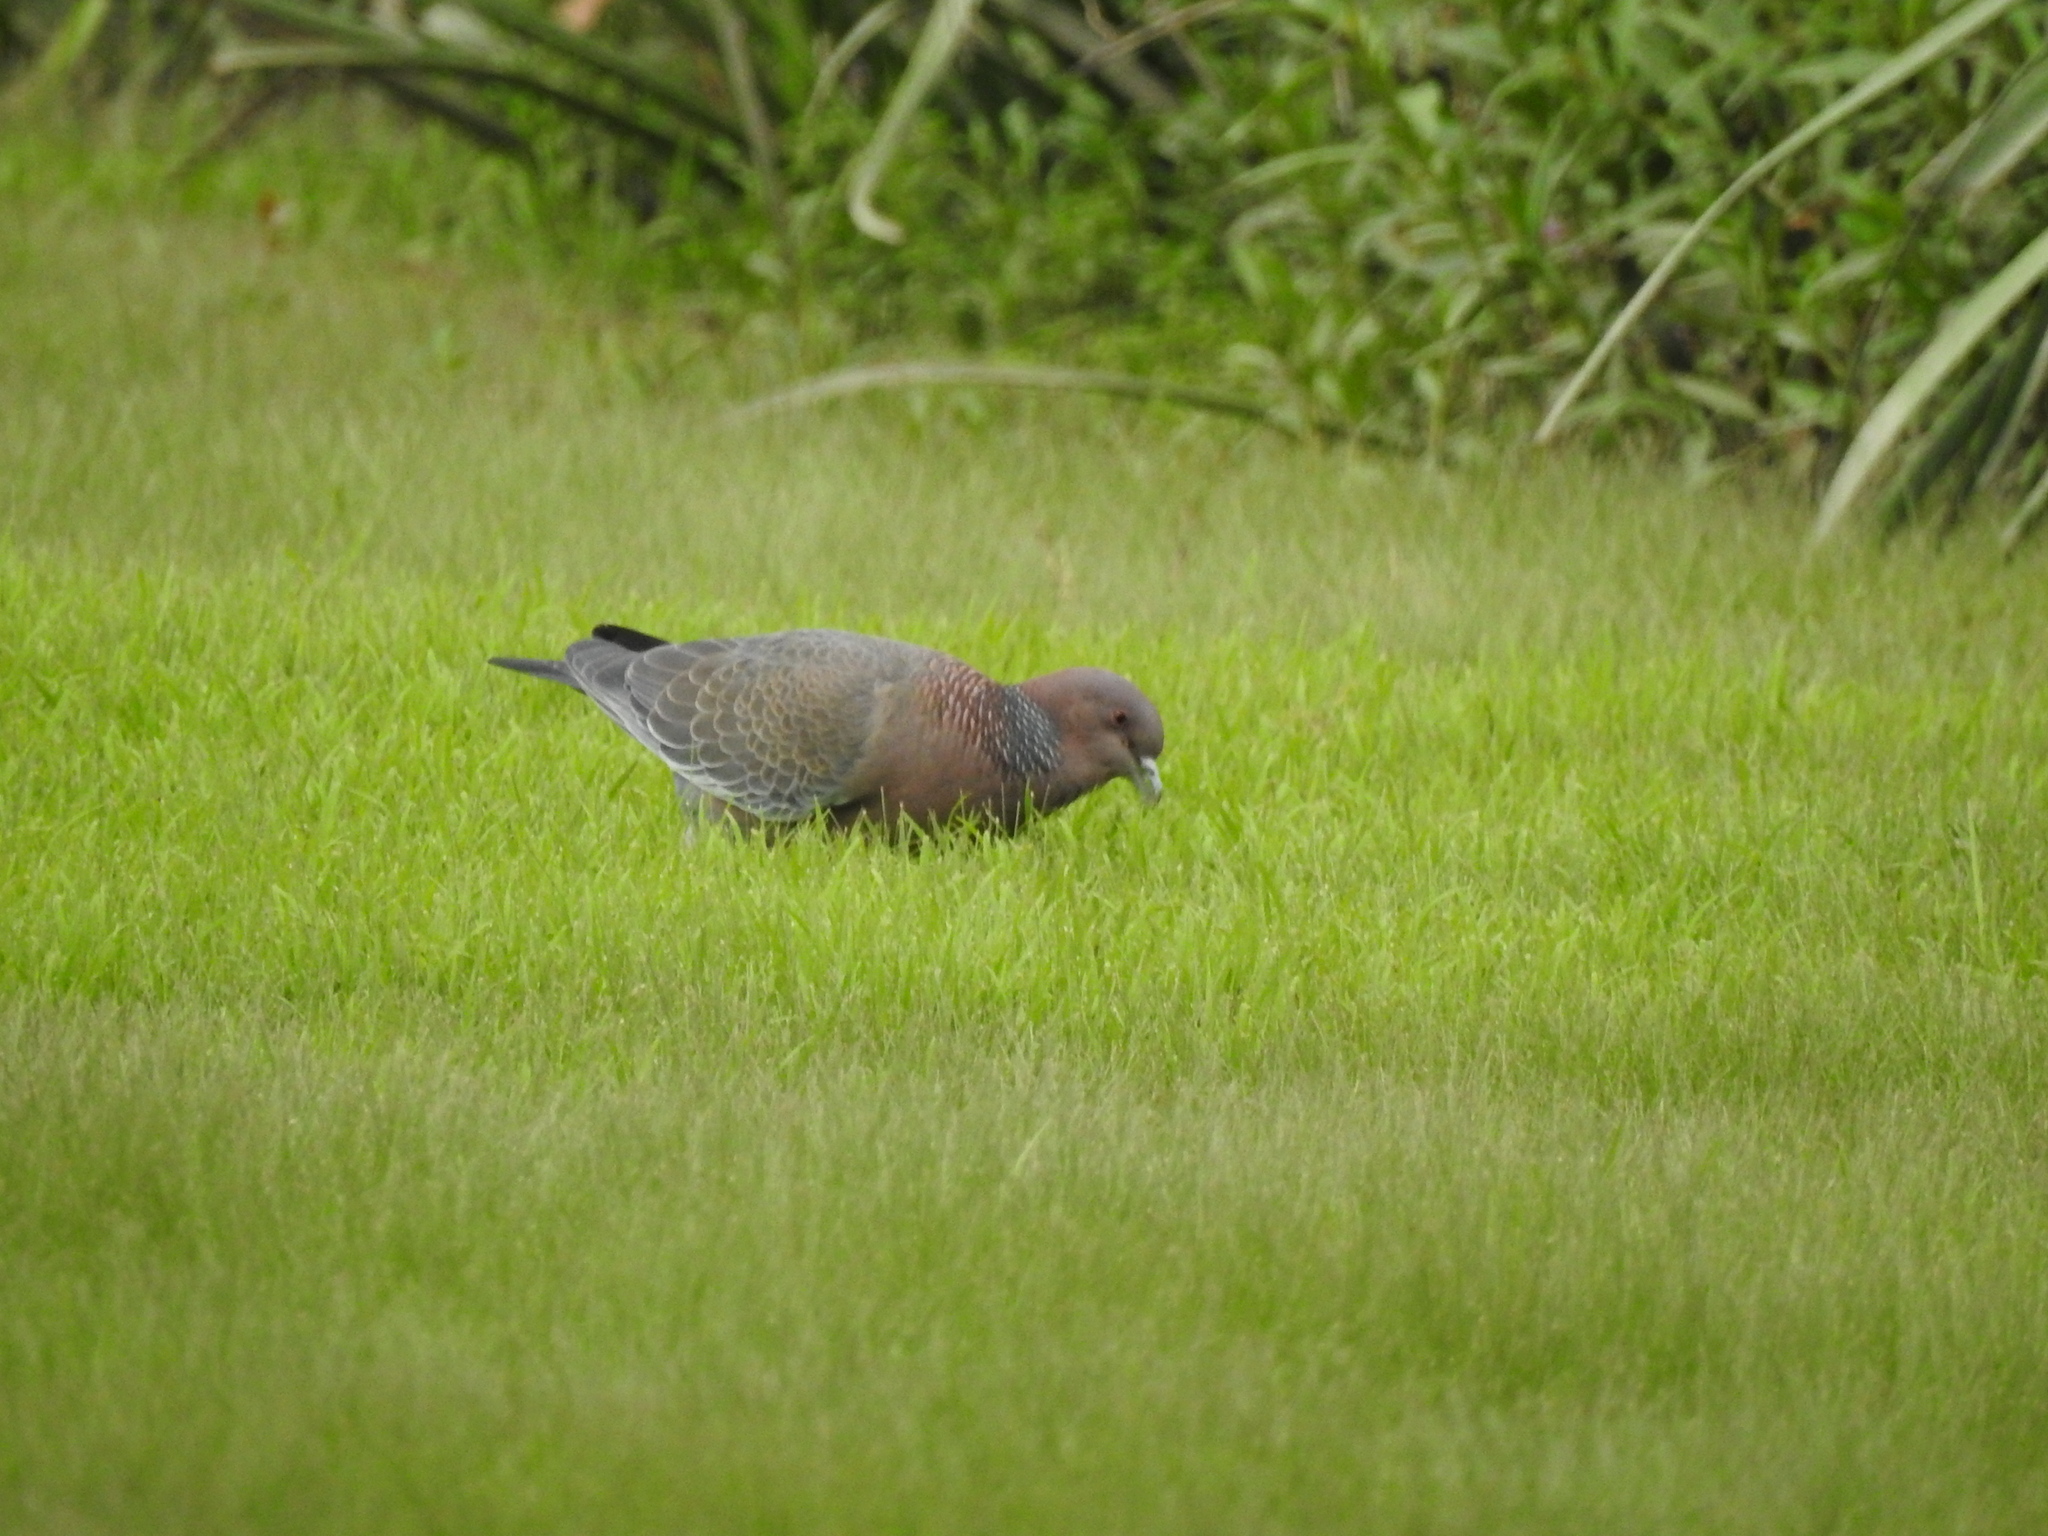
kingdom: Animalia
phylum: Chordata
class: Aves
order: Columbiformes
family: Columbidae
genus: Patagioenas
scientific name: Patagioenas picazuro
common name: Picazuro pigeon
